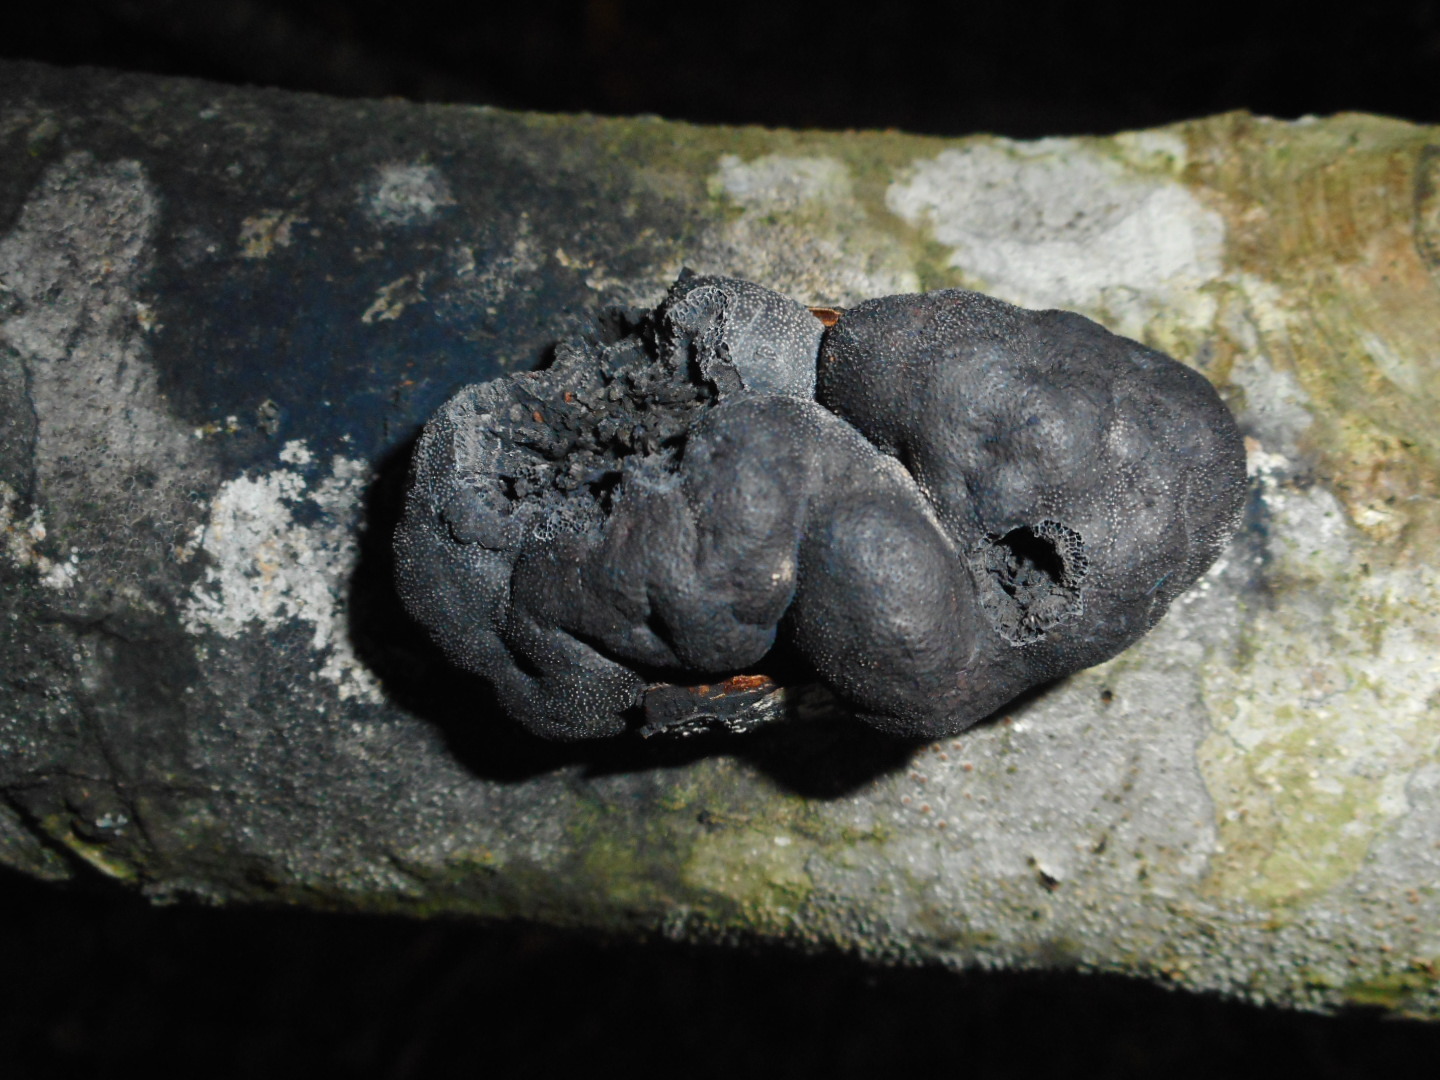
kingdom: Fungi
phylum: Ascomycota
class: Sordariomycetes
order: Xylariales
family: Hypoxylaceae
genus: Daldinia
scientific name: Daldinia petriniae
